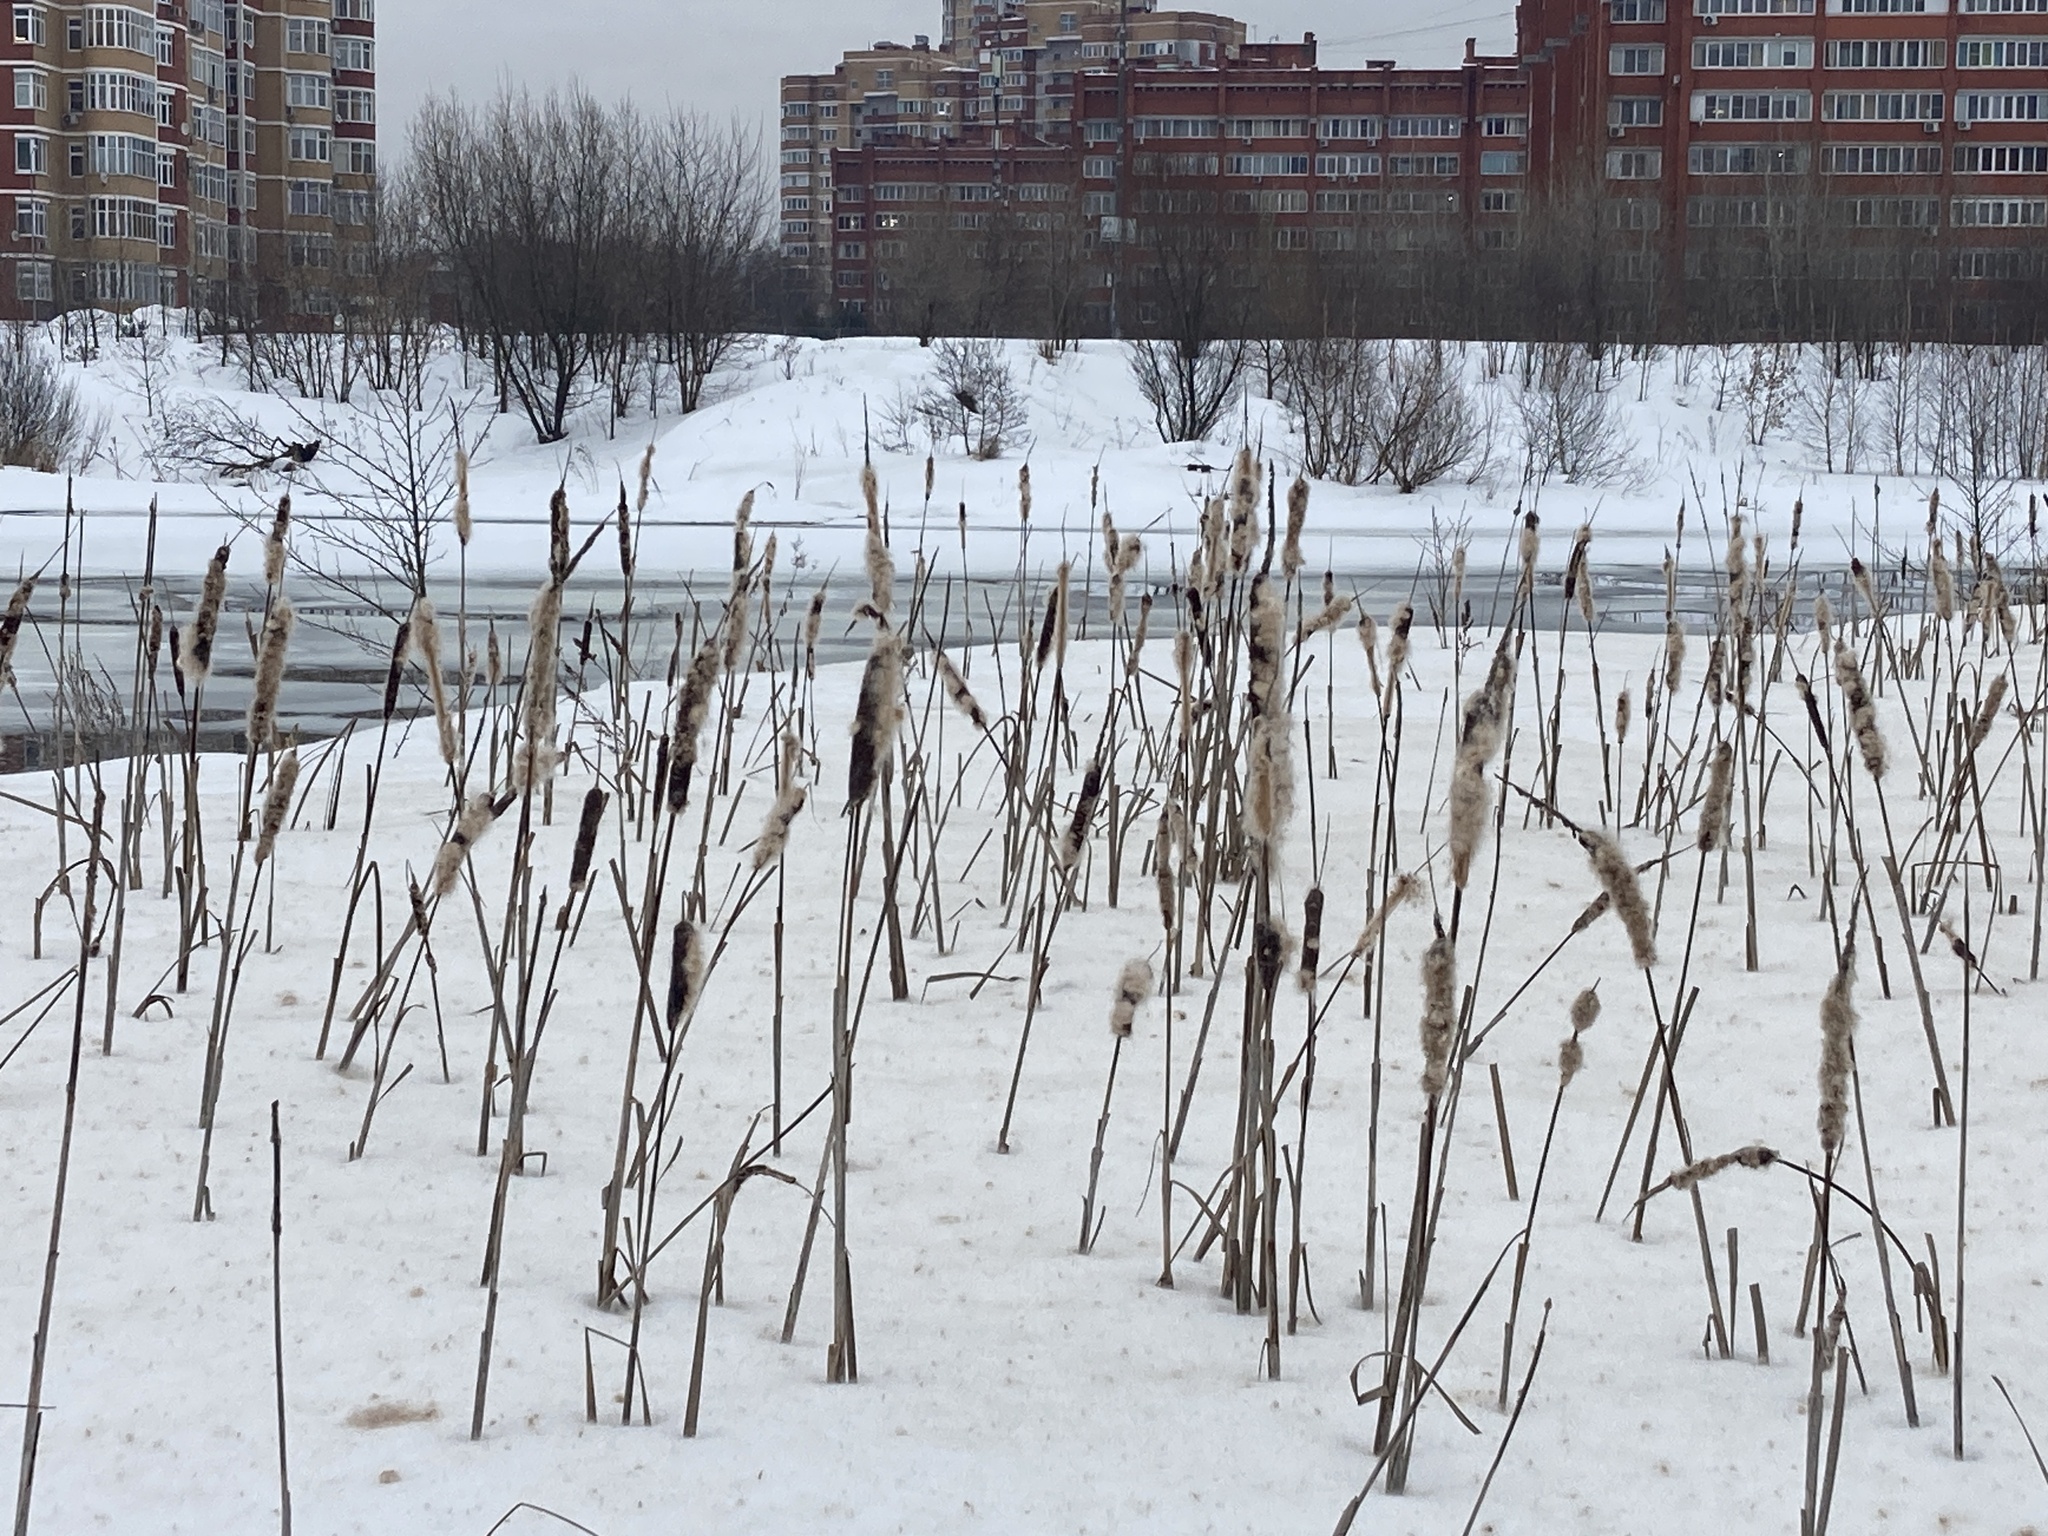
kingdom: Plantae
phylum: Tracheophyta
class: Liliopsida
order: Poales
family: Typhaceae
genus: Typha
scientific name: Typha latifolia
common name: Broadleaf cattail
